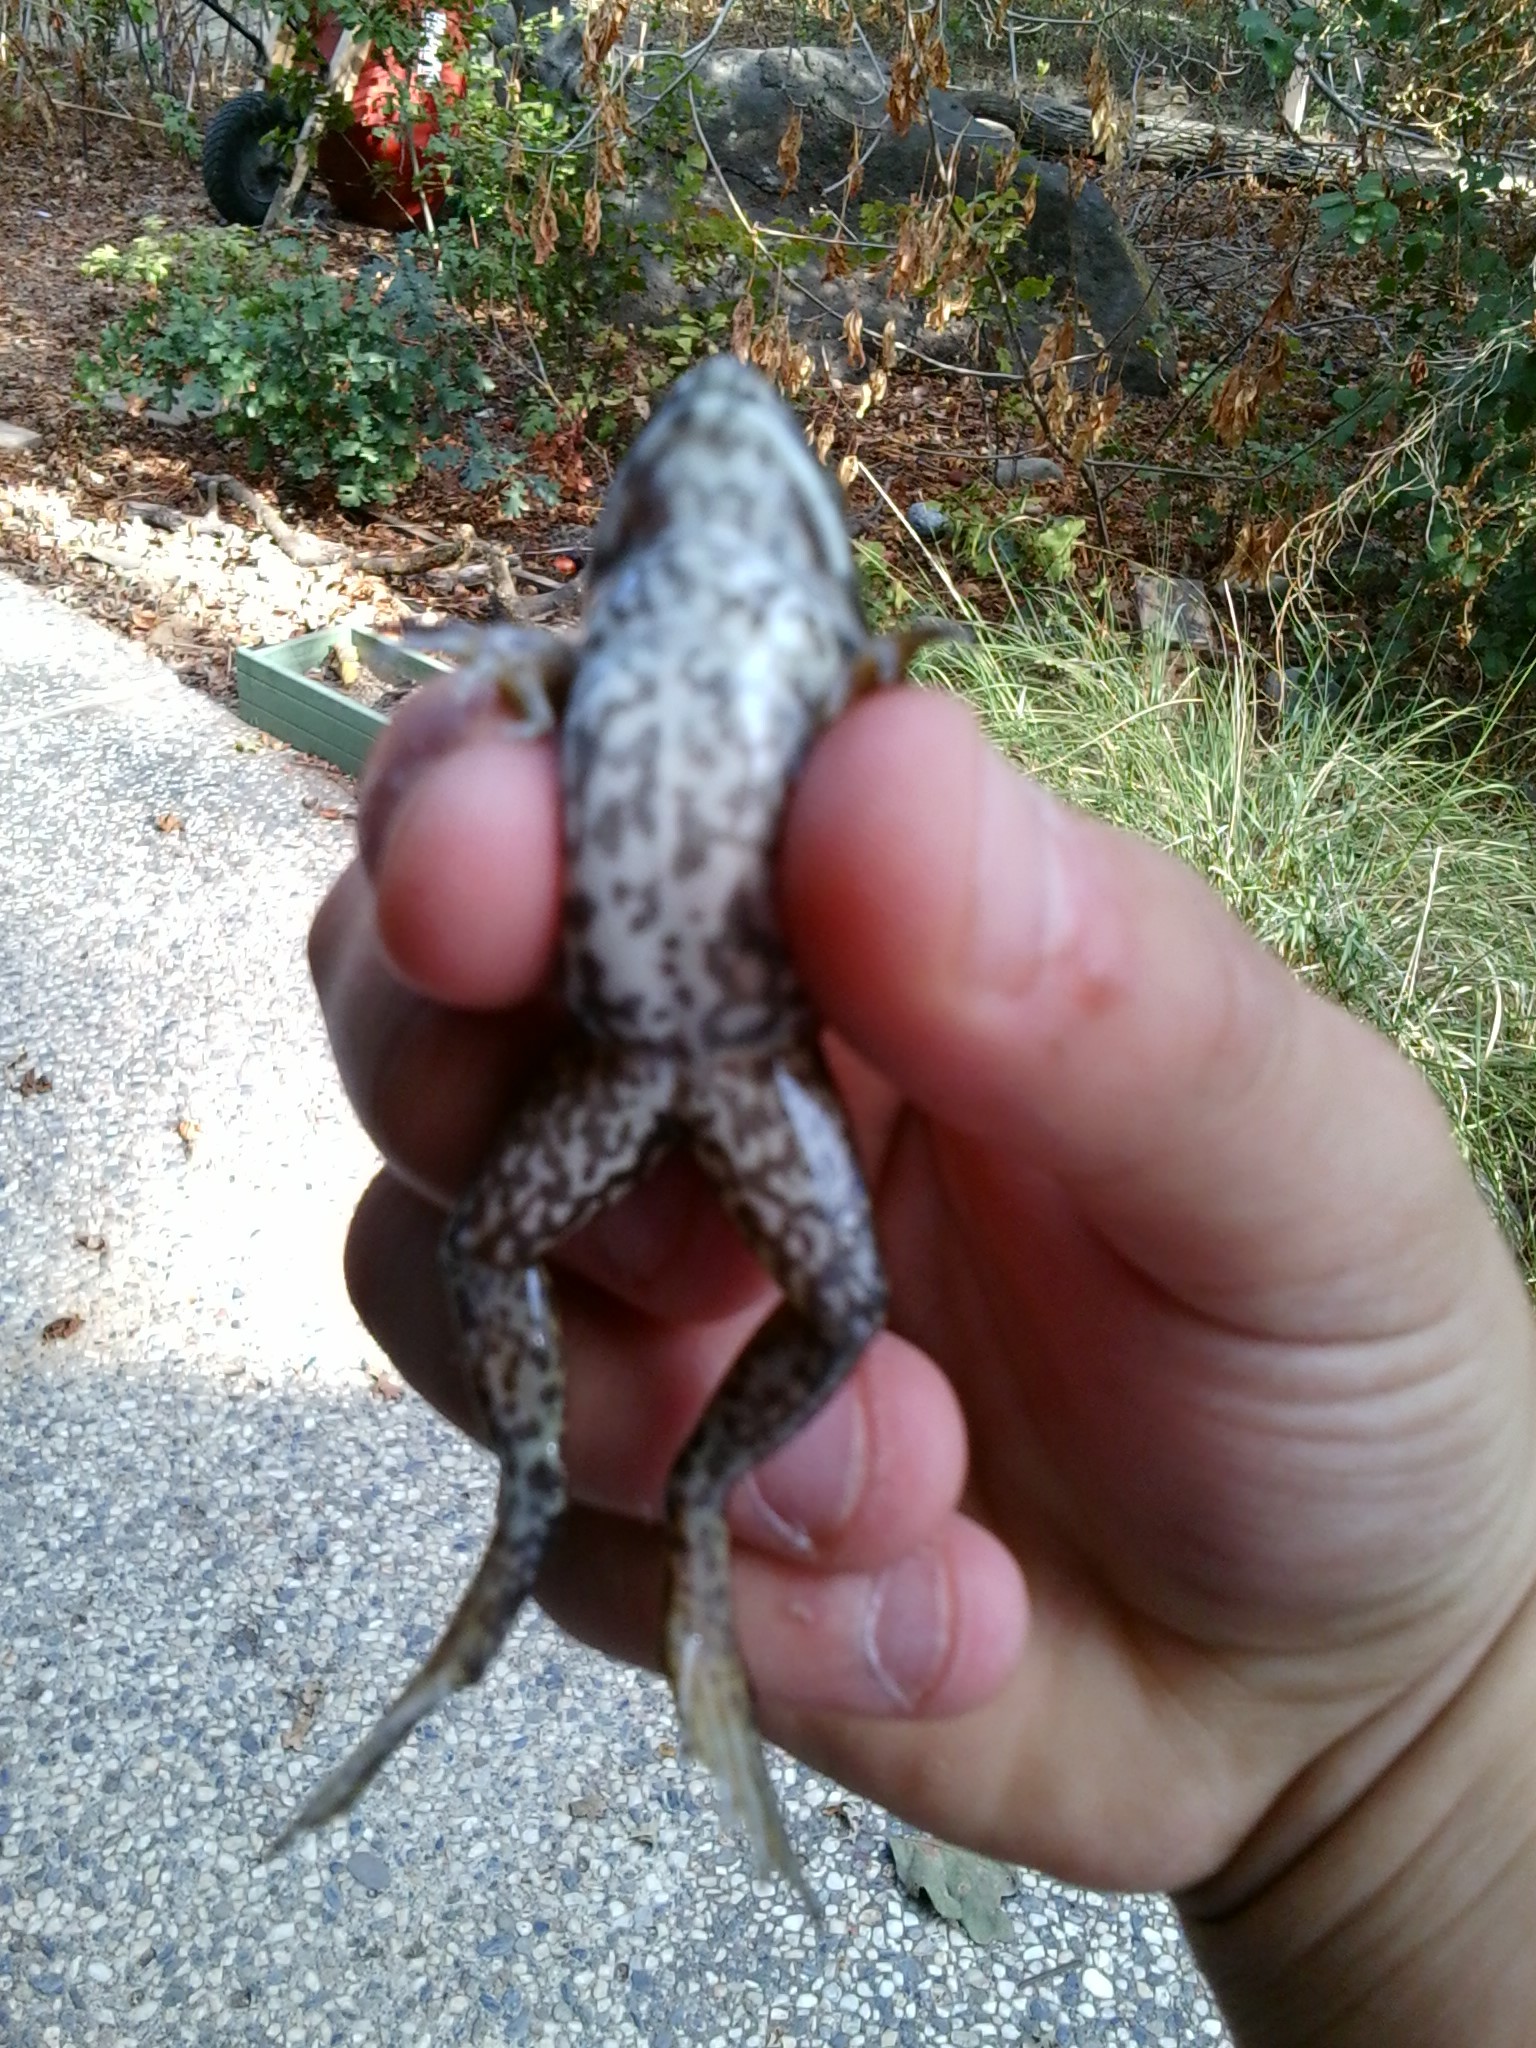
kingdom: Animalia
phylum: Chordata
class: Amphibia
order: Anura
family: Ranidae
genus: Lithobates
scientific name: Lithobates catesbeianus
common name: American bullfrog
